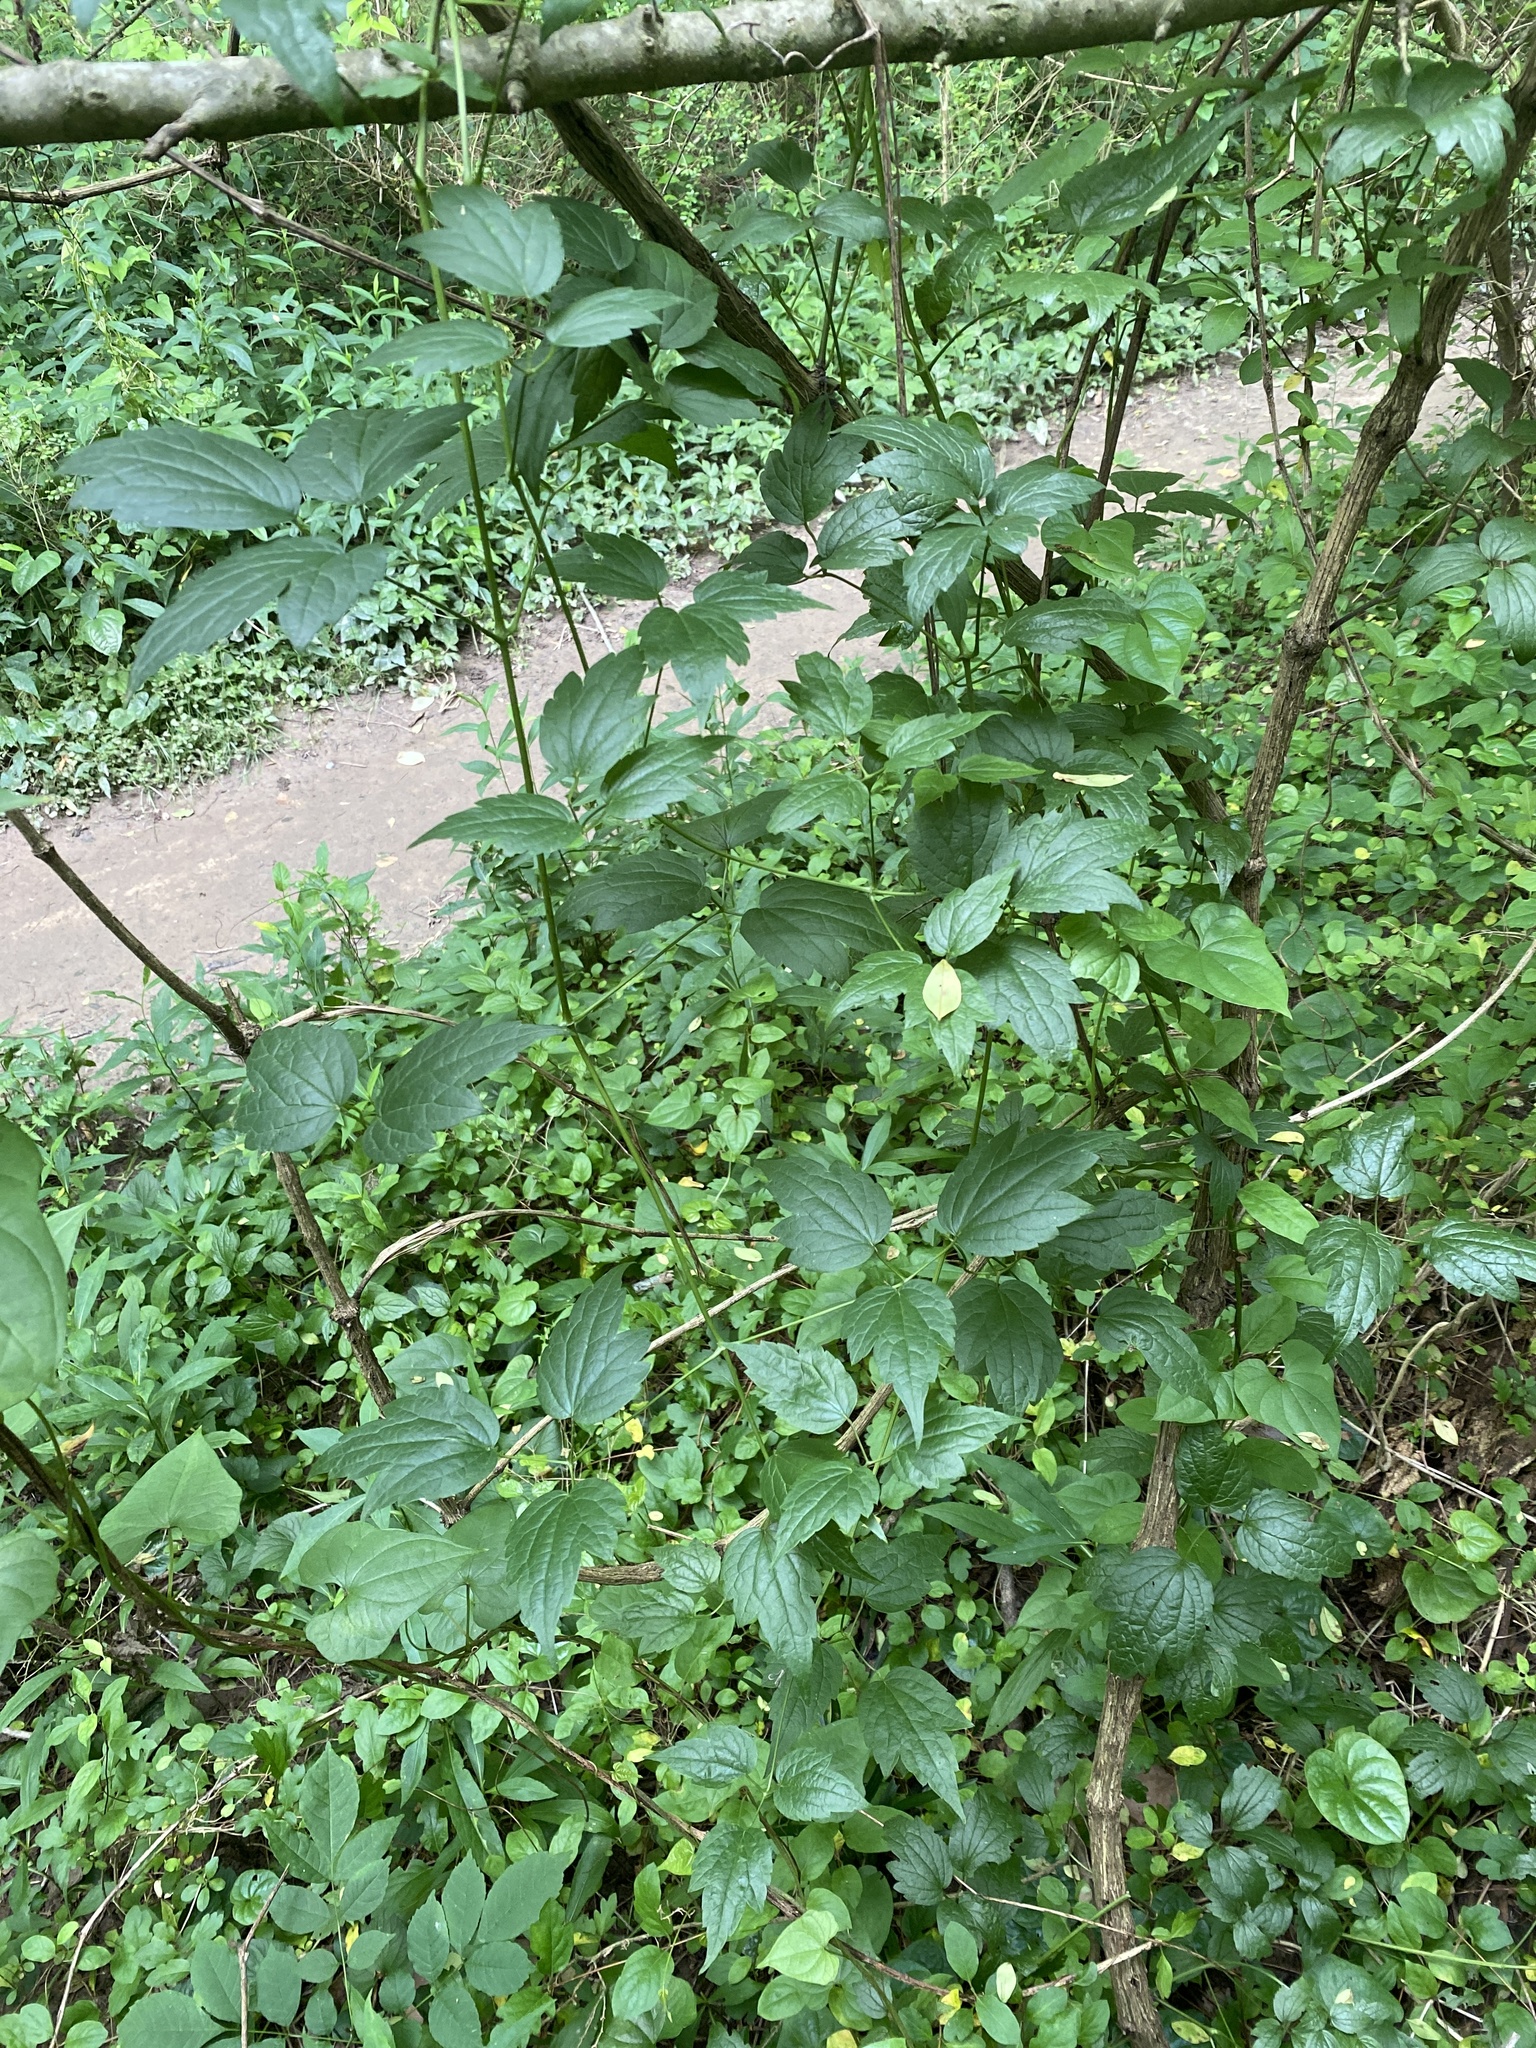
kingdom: Plantae
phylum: Tracheophyta
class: Magnoliopsida
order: Ranunculales
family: Ranunculaceae
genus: Clematis
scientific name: Clematis virginiana
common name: Virgin's-bower
